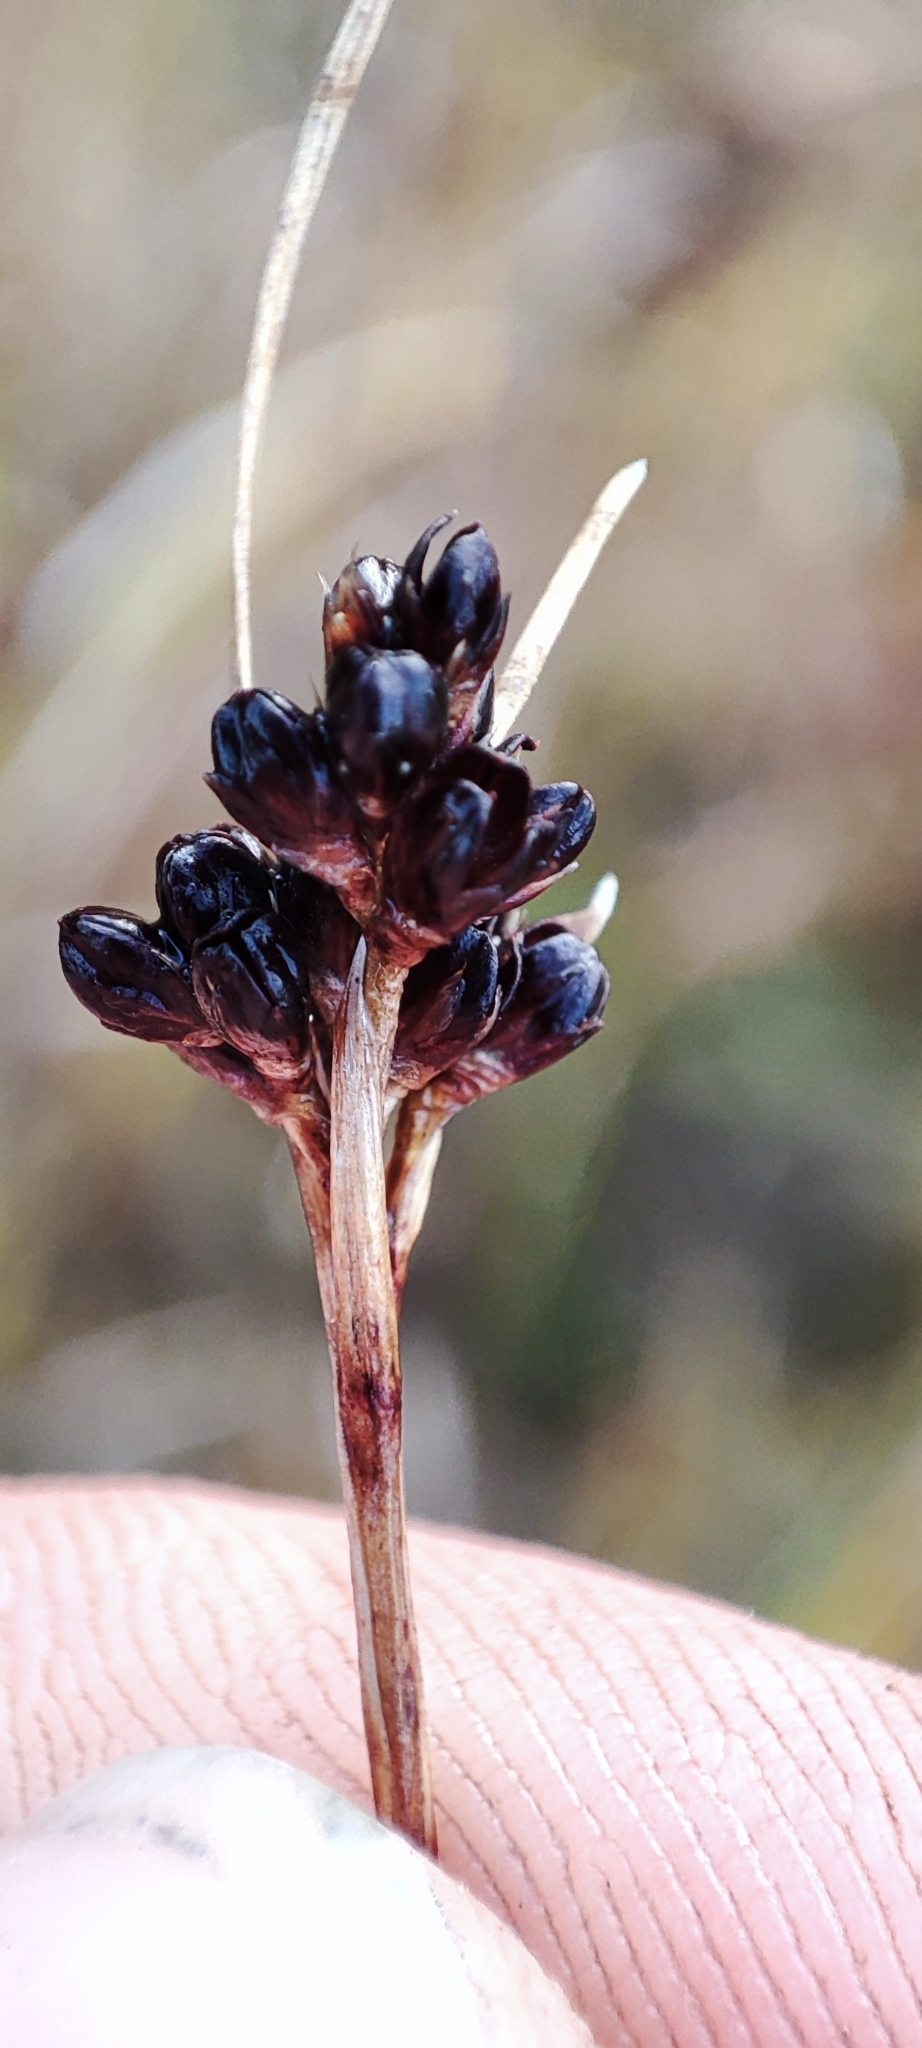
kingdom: Plantae
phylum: Tracheophyta
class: Liliopsida
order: Poales
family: Juncaceae
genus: Luzula
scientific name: Luzula multiflora
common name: Heath wood-rush
